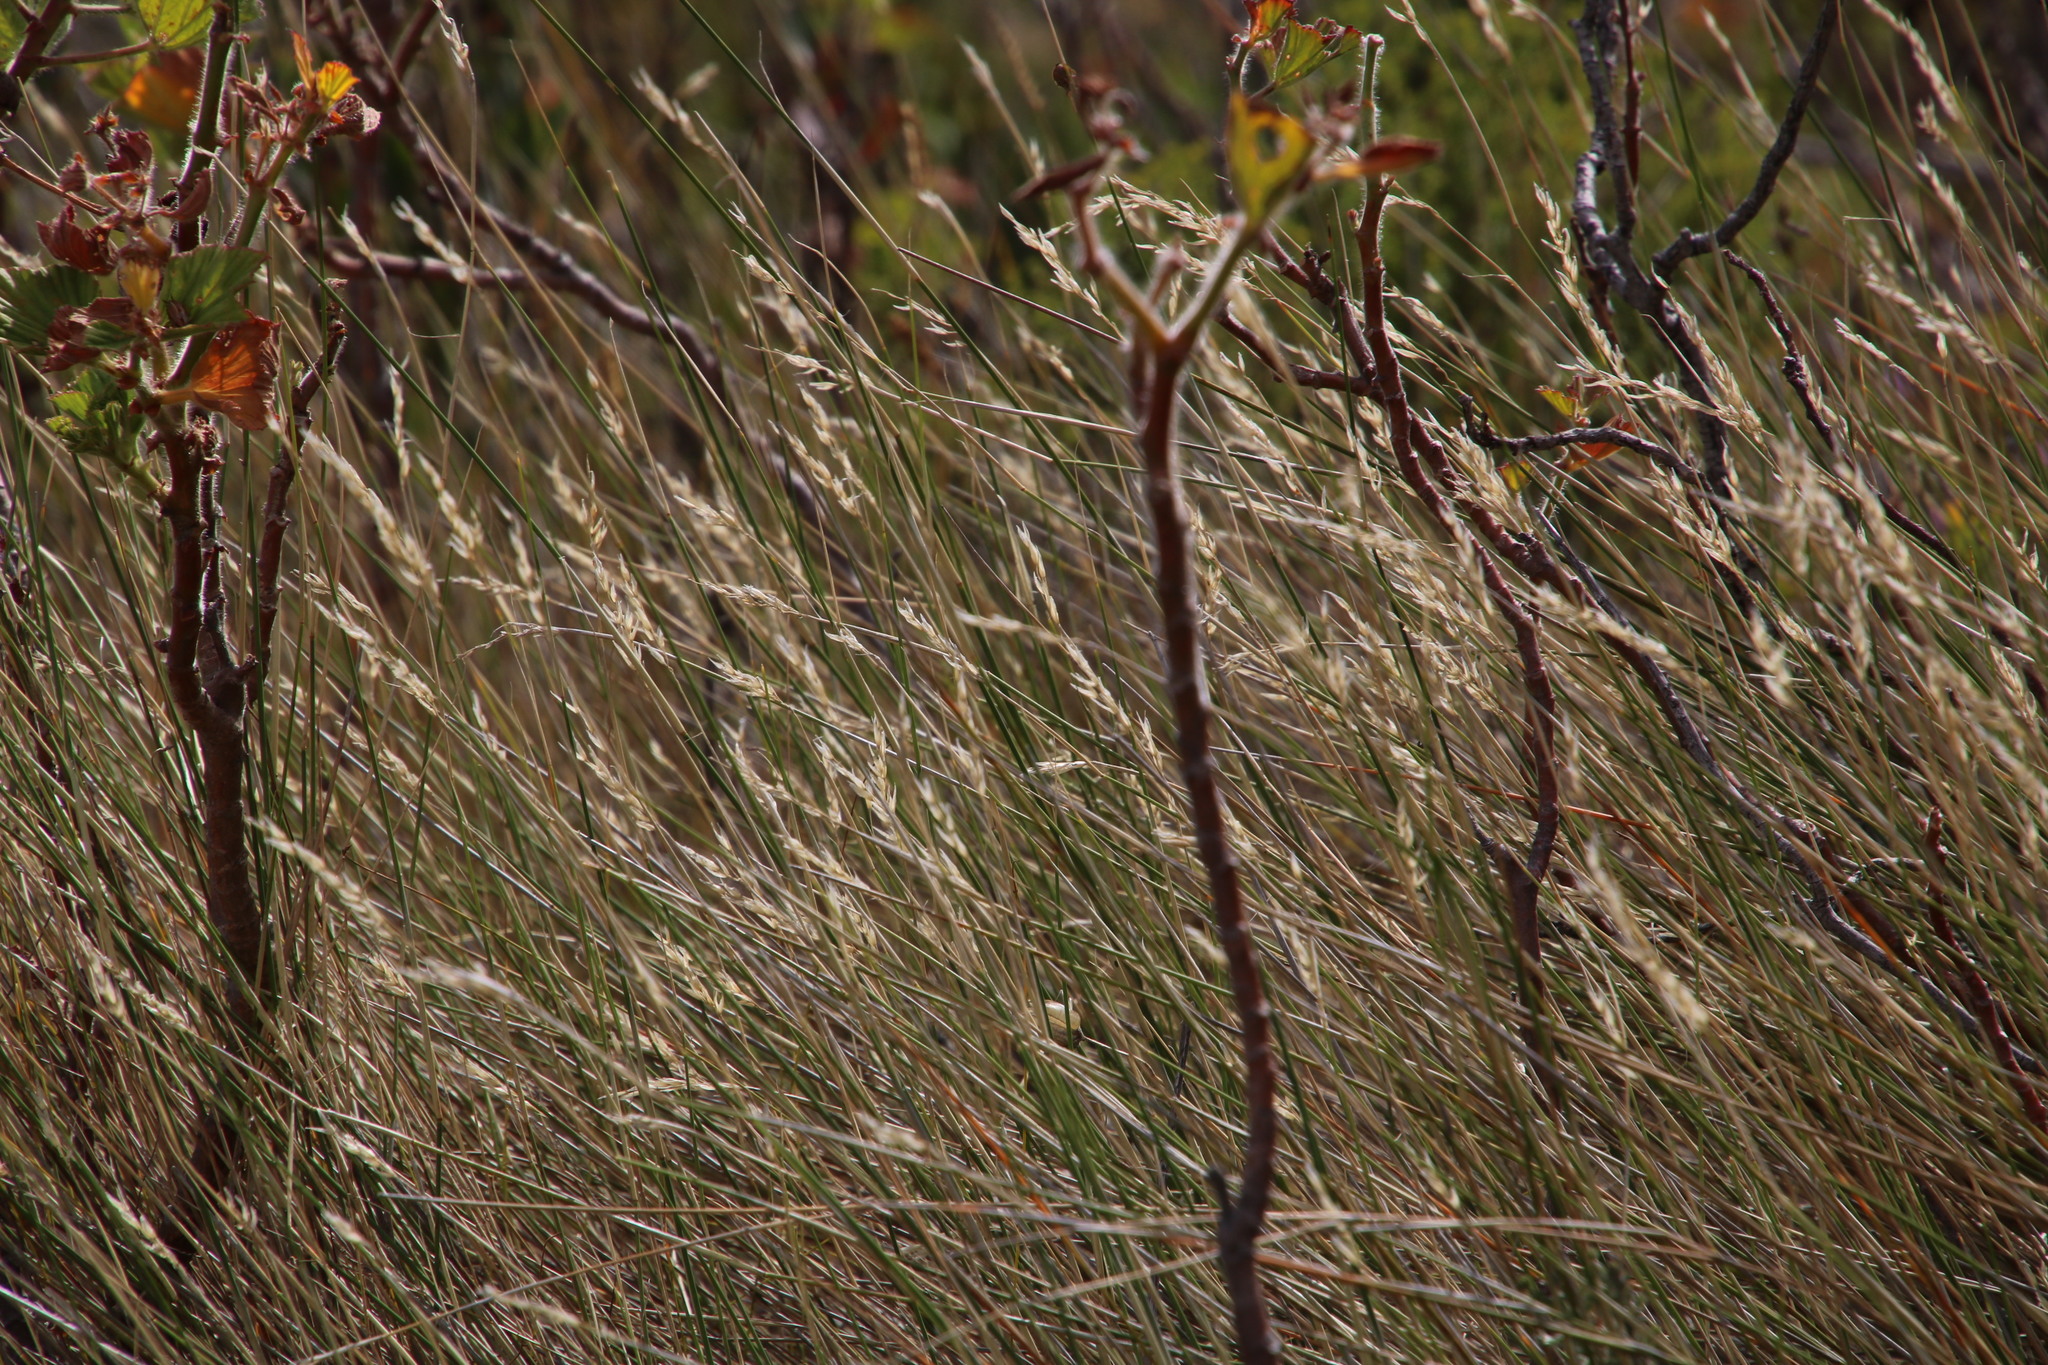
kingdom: Plantae
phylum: Tracheophyta
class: Liliopsida
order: Poales
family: Poaceae
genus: Ehrharta
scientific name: Ehrharta ramosa
